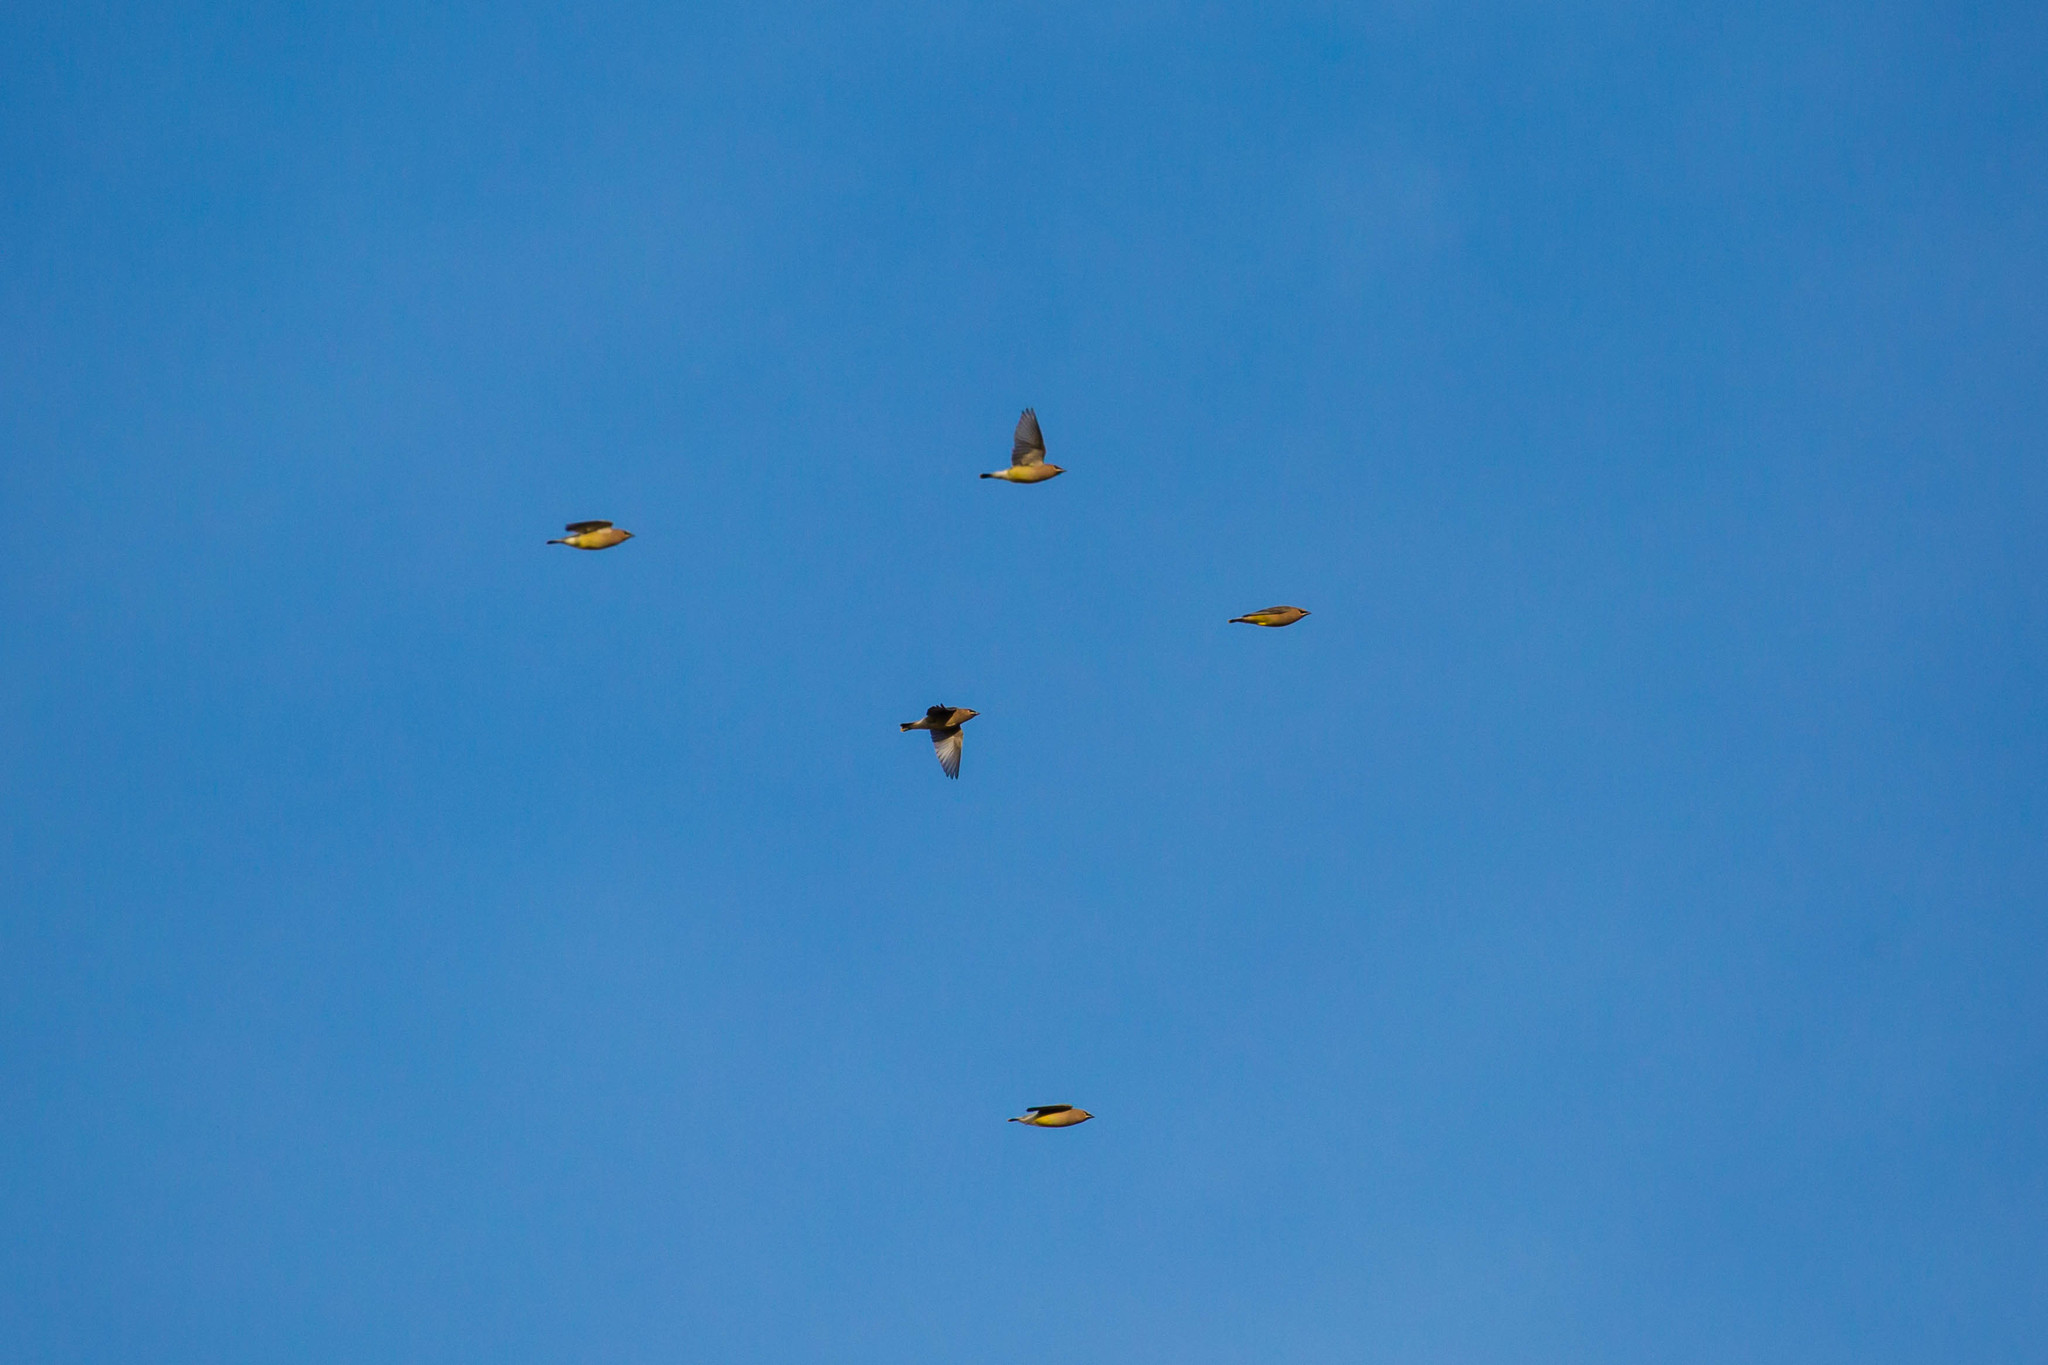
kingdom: Animalia
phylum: Chordata
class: Aves
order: Passeriformes
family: Bombycillidae
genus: Bombycilla
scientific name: Bombycilla cedrorum
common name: Cedar waxwing
